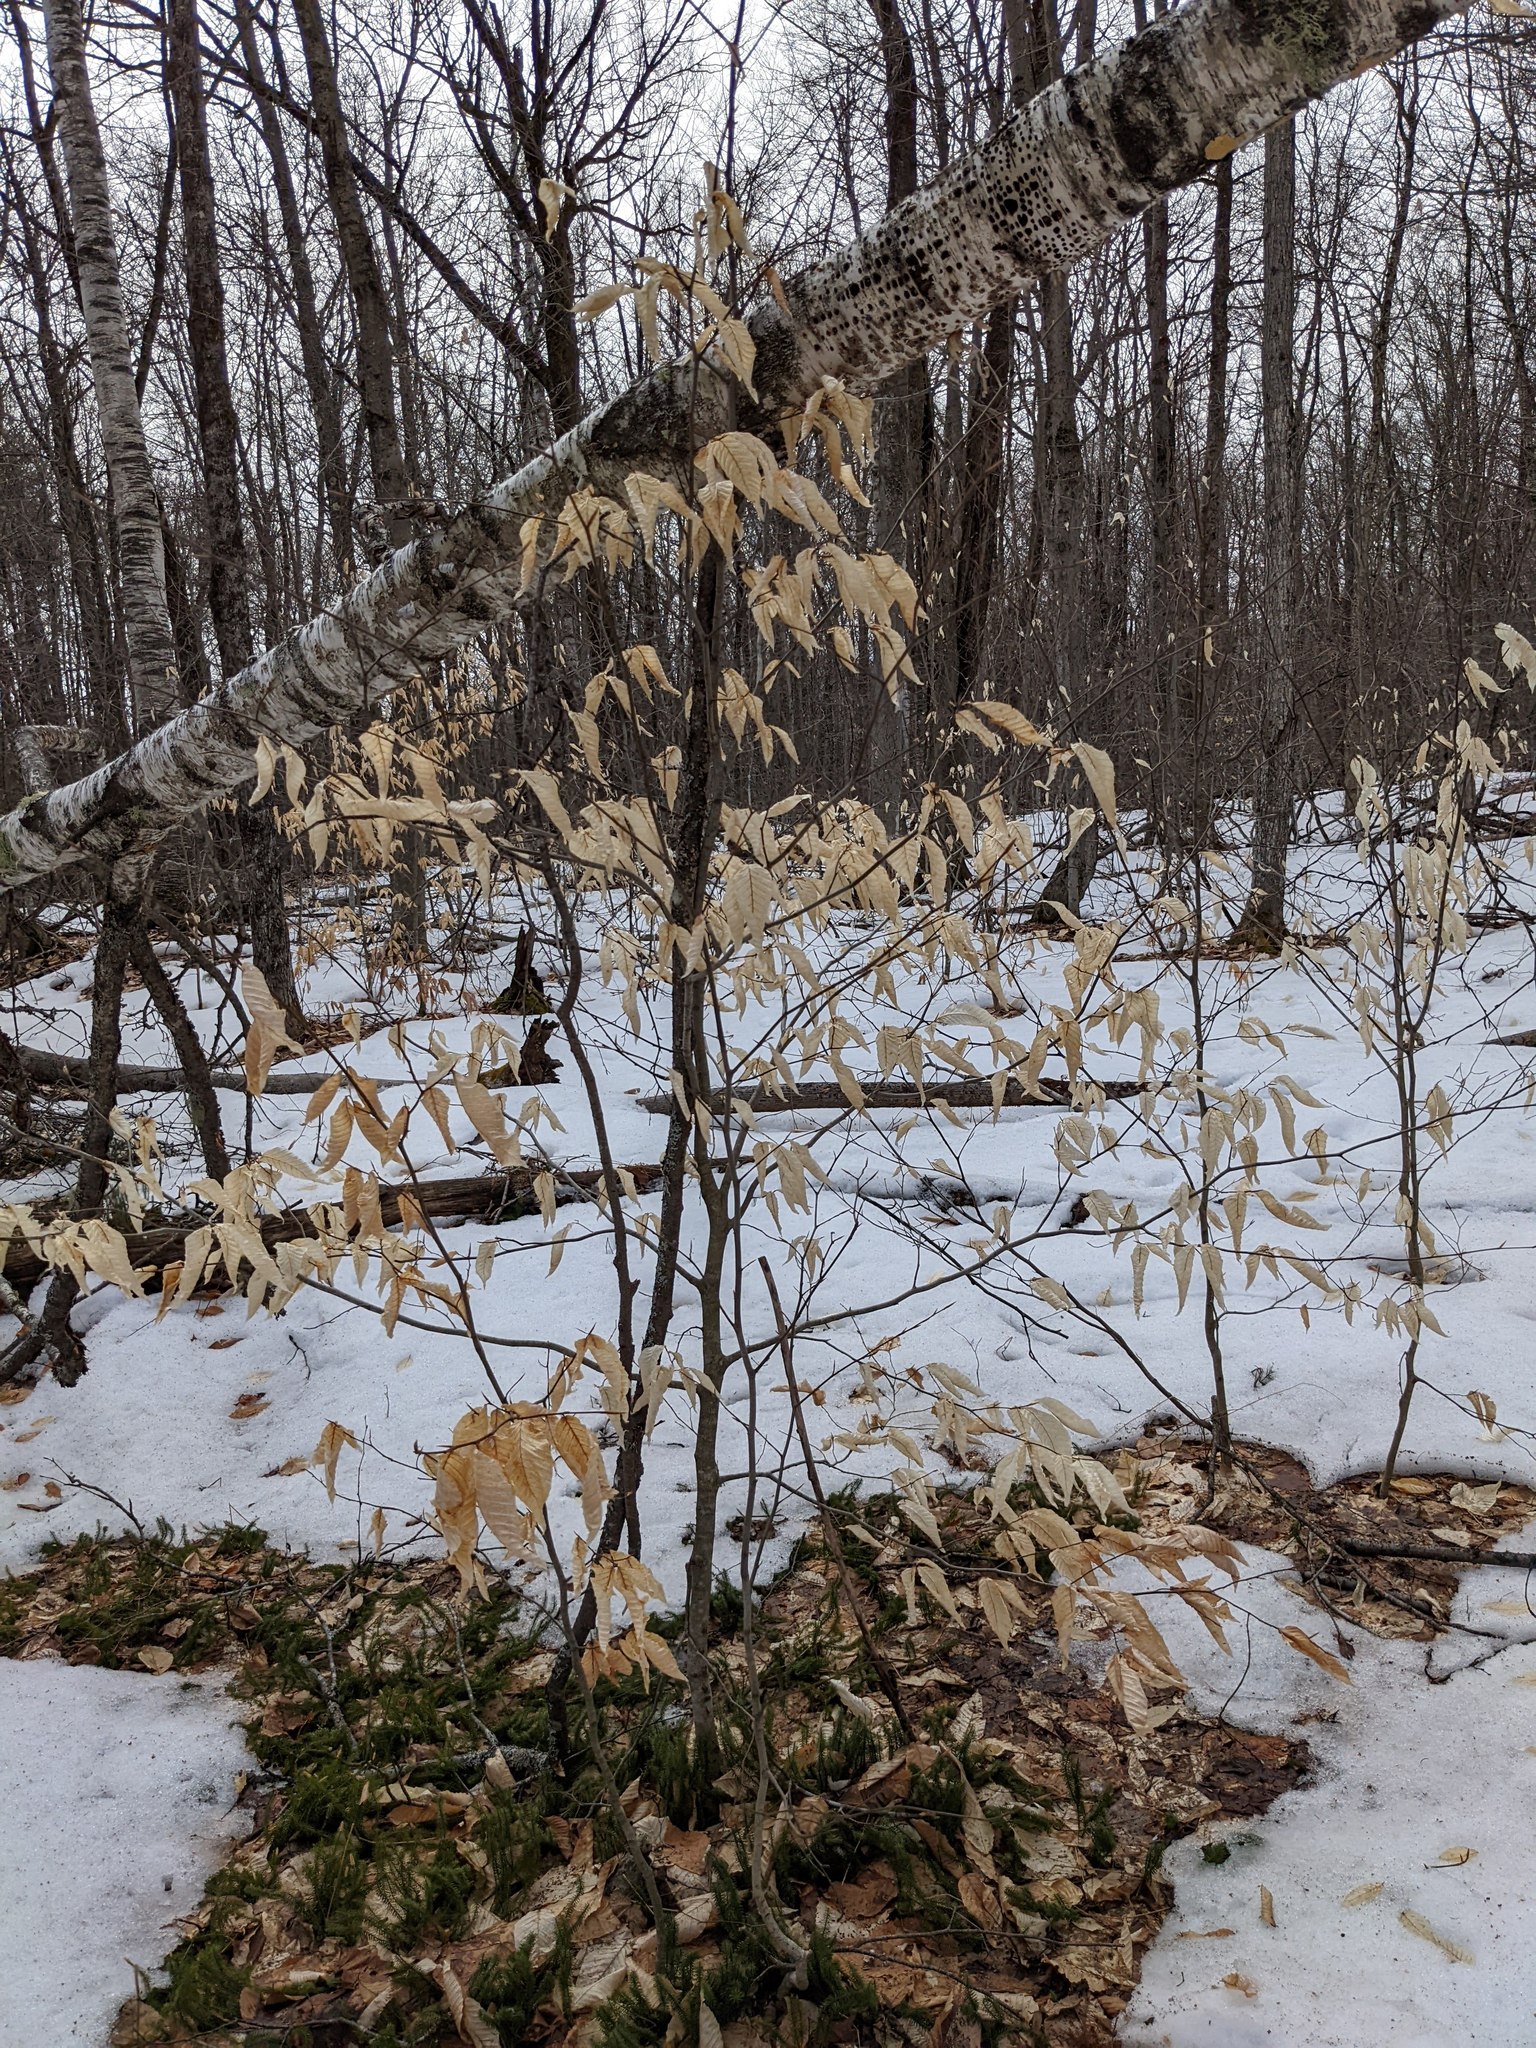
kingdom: Plantae
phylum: Tracheophyta
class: Magnoliopsida
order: Fagales
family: Fagaceae
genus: Fagus
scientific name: Fagus grandifolia
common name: American beech
